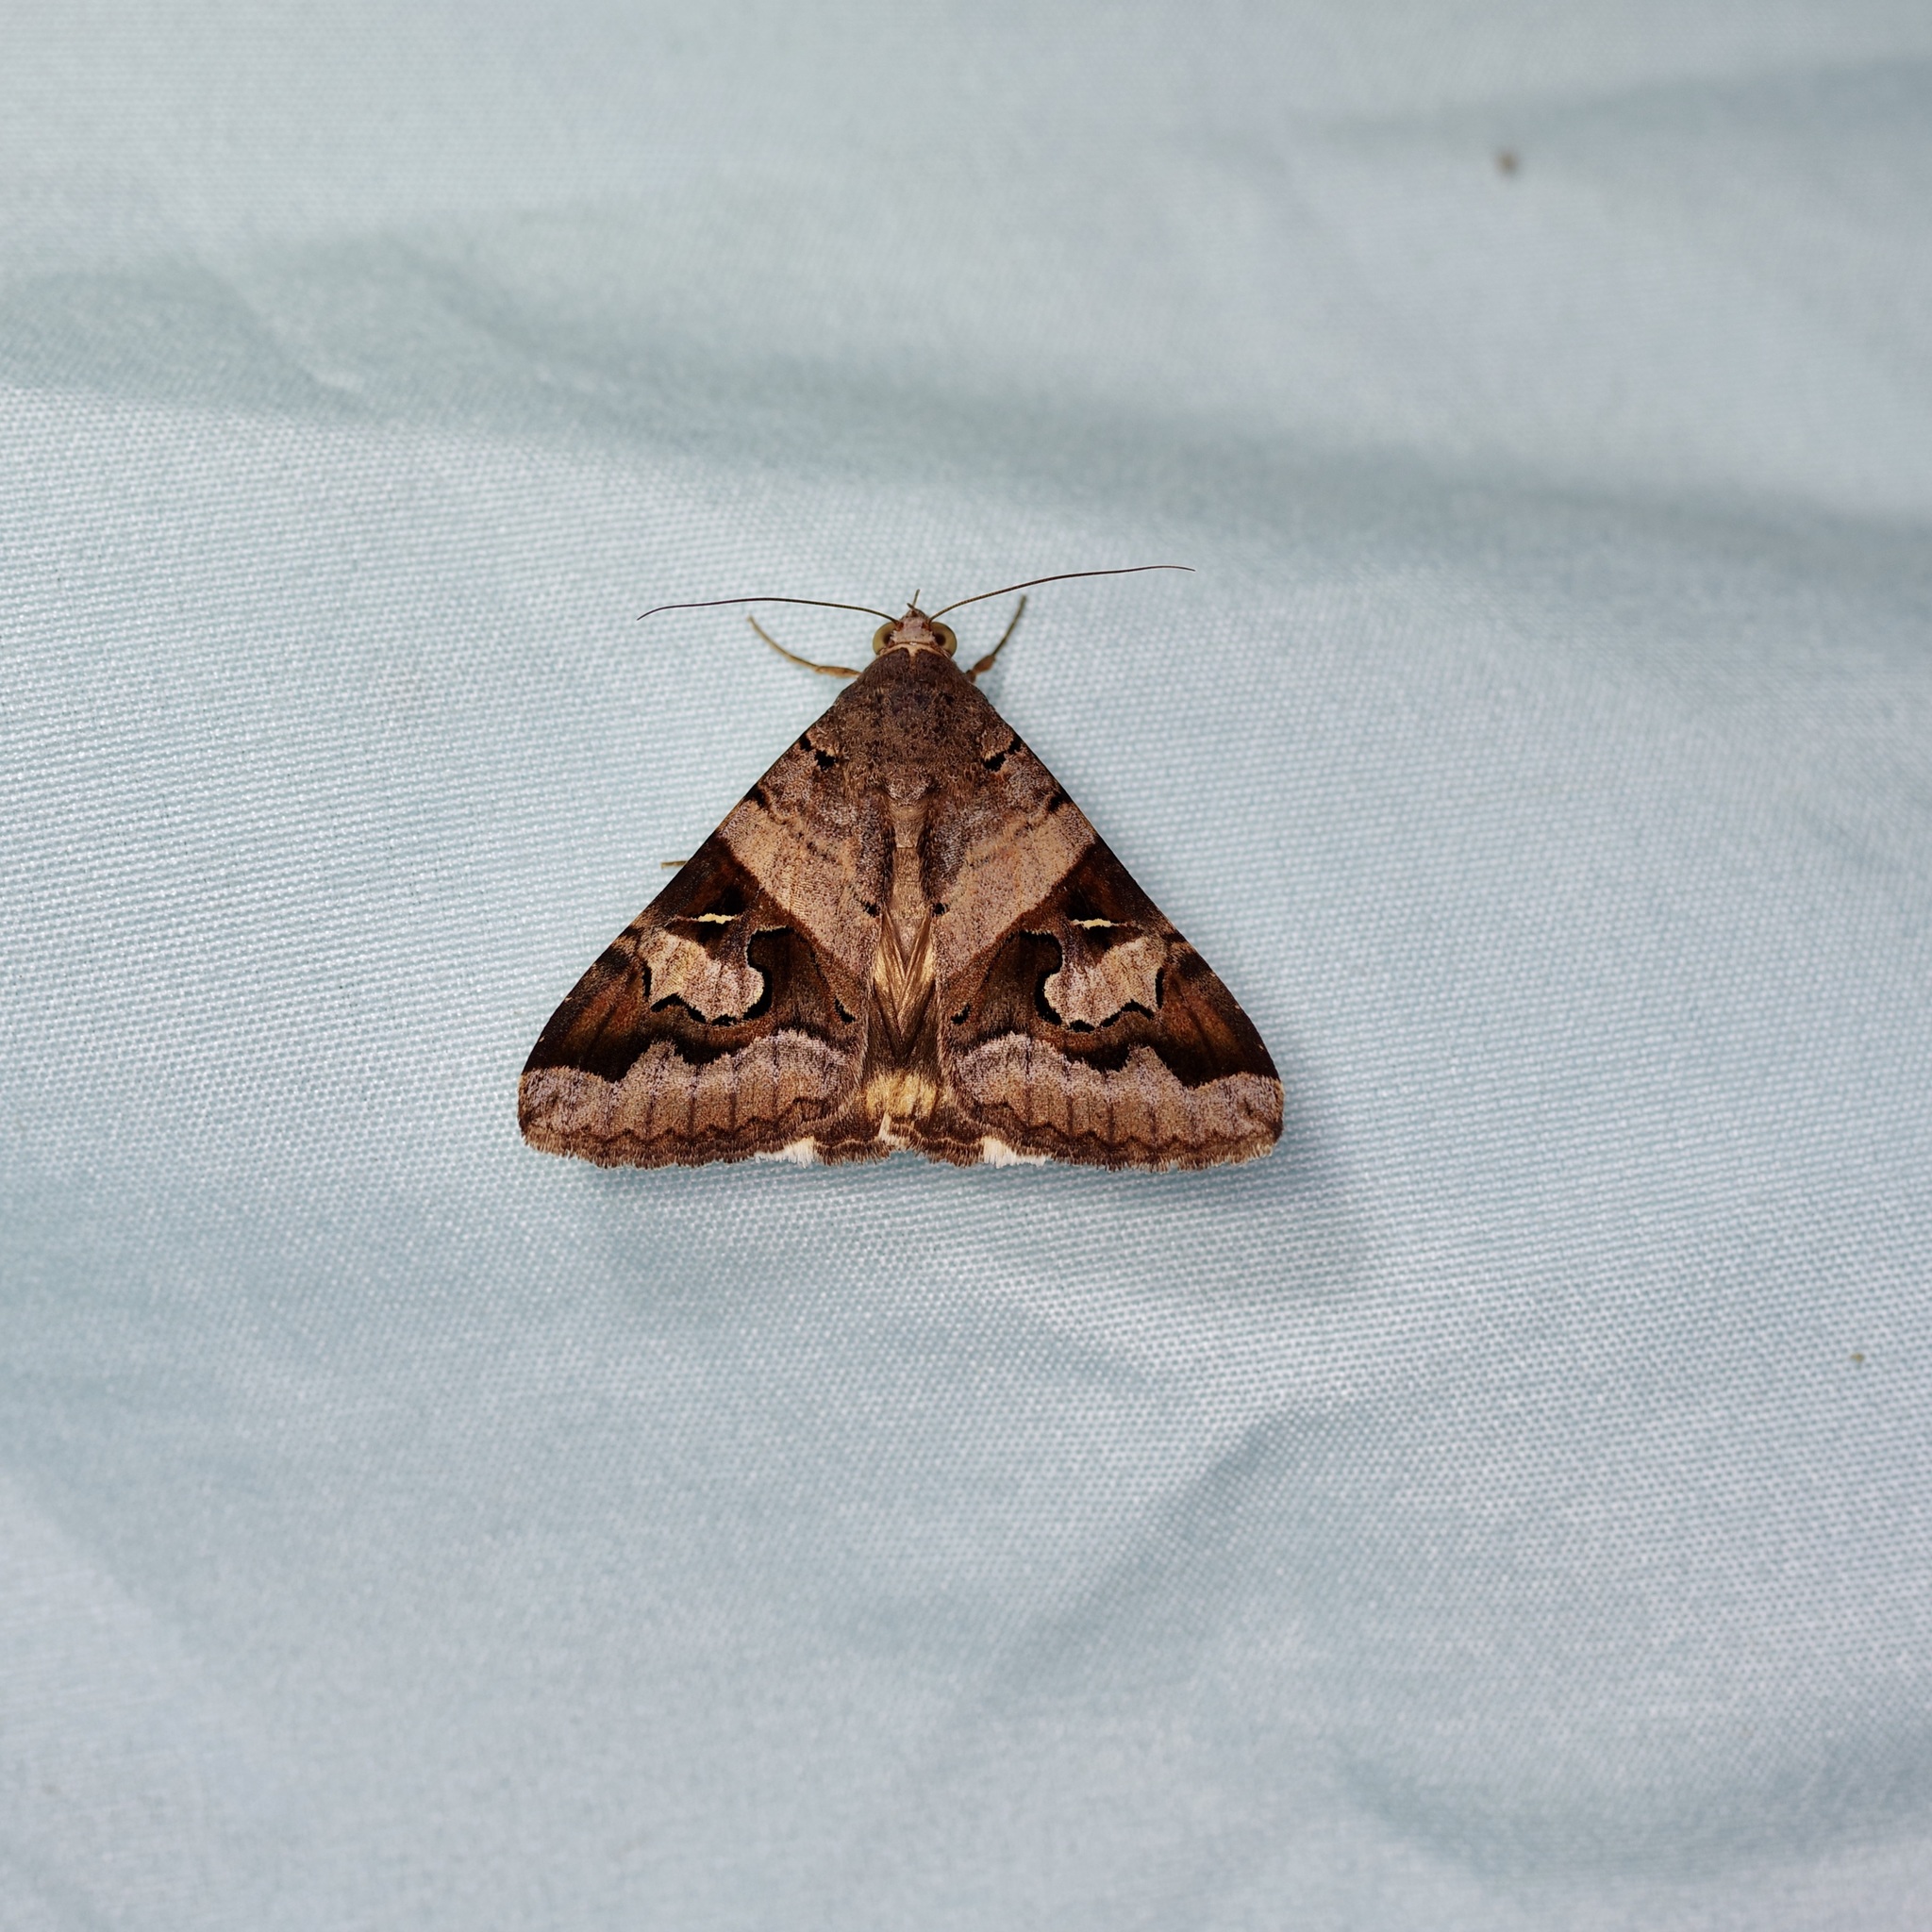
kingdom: Animalia
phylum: Arthropoda
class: Insecta
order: Lepidoptera
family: Erebidae
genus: Melipotis
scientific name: Melipotis indomita
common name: Moth
